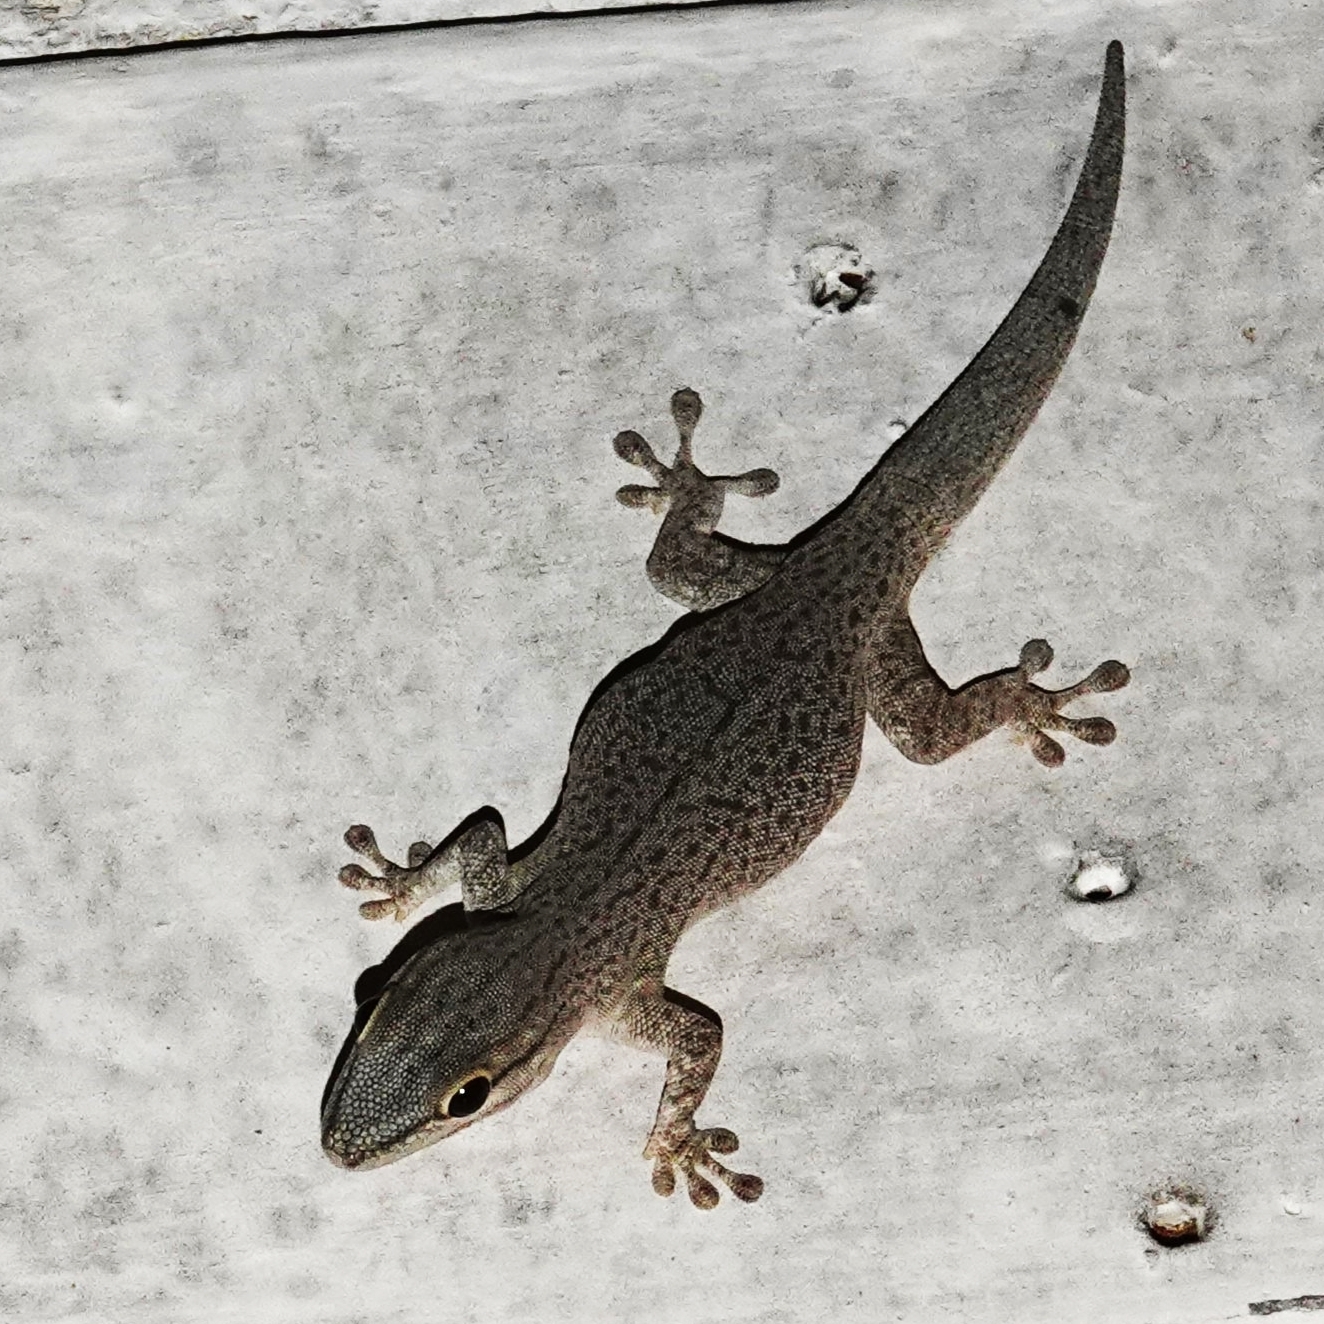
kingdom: Animalia
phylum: Chordata
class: Squamata
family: Gekkonidae
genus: Phelsuma
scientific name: Phelsuma mutabilis
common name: Thick tail gecko
